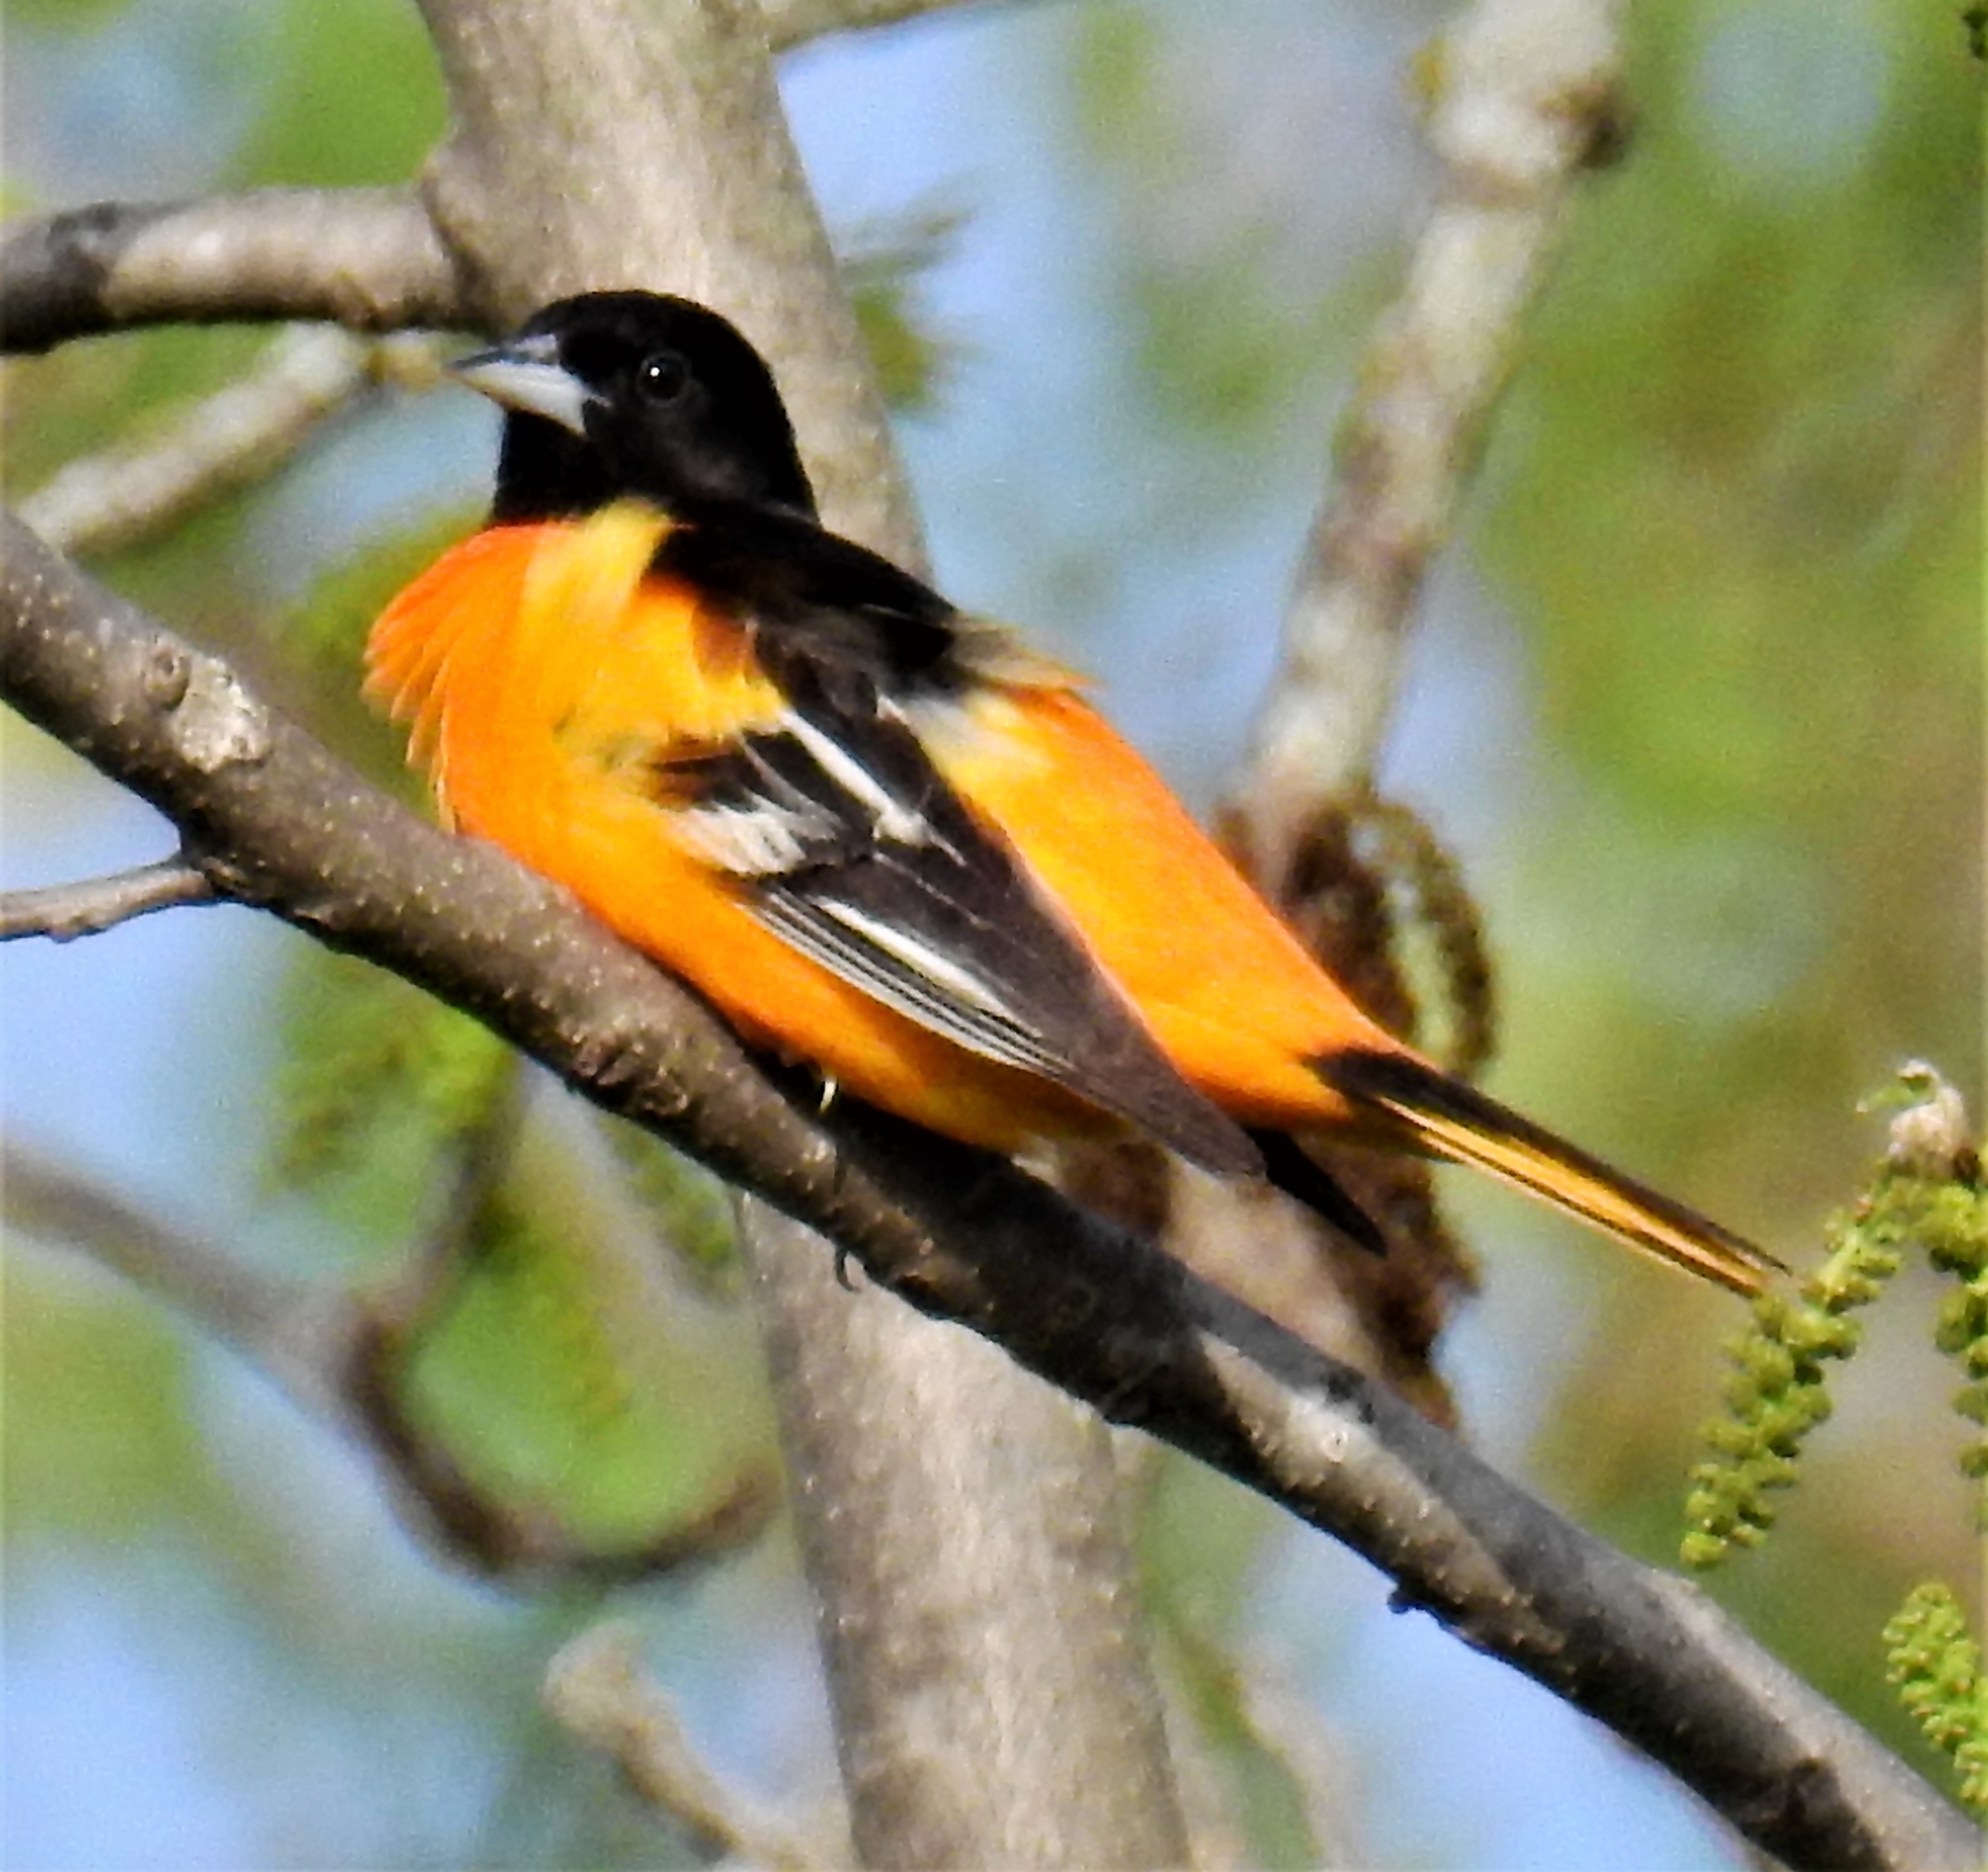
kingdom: Animalia
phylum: Chordata
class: Aves
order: Passeriformes
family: Icteridae
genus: Icterus
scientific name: Icterus galbula
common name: Baltimore oriole
